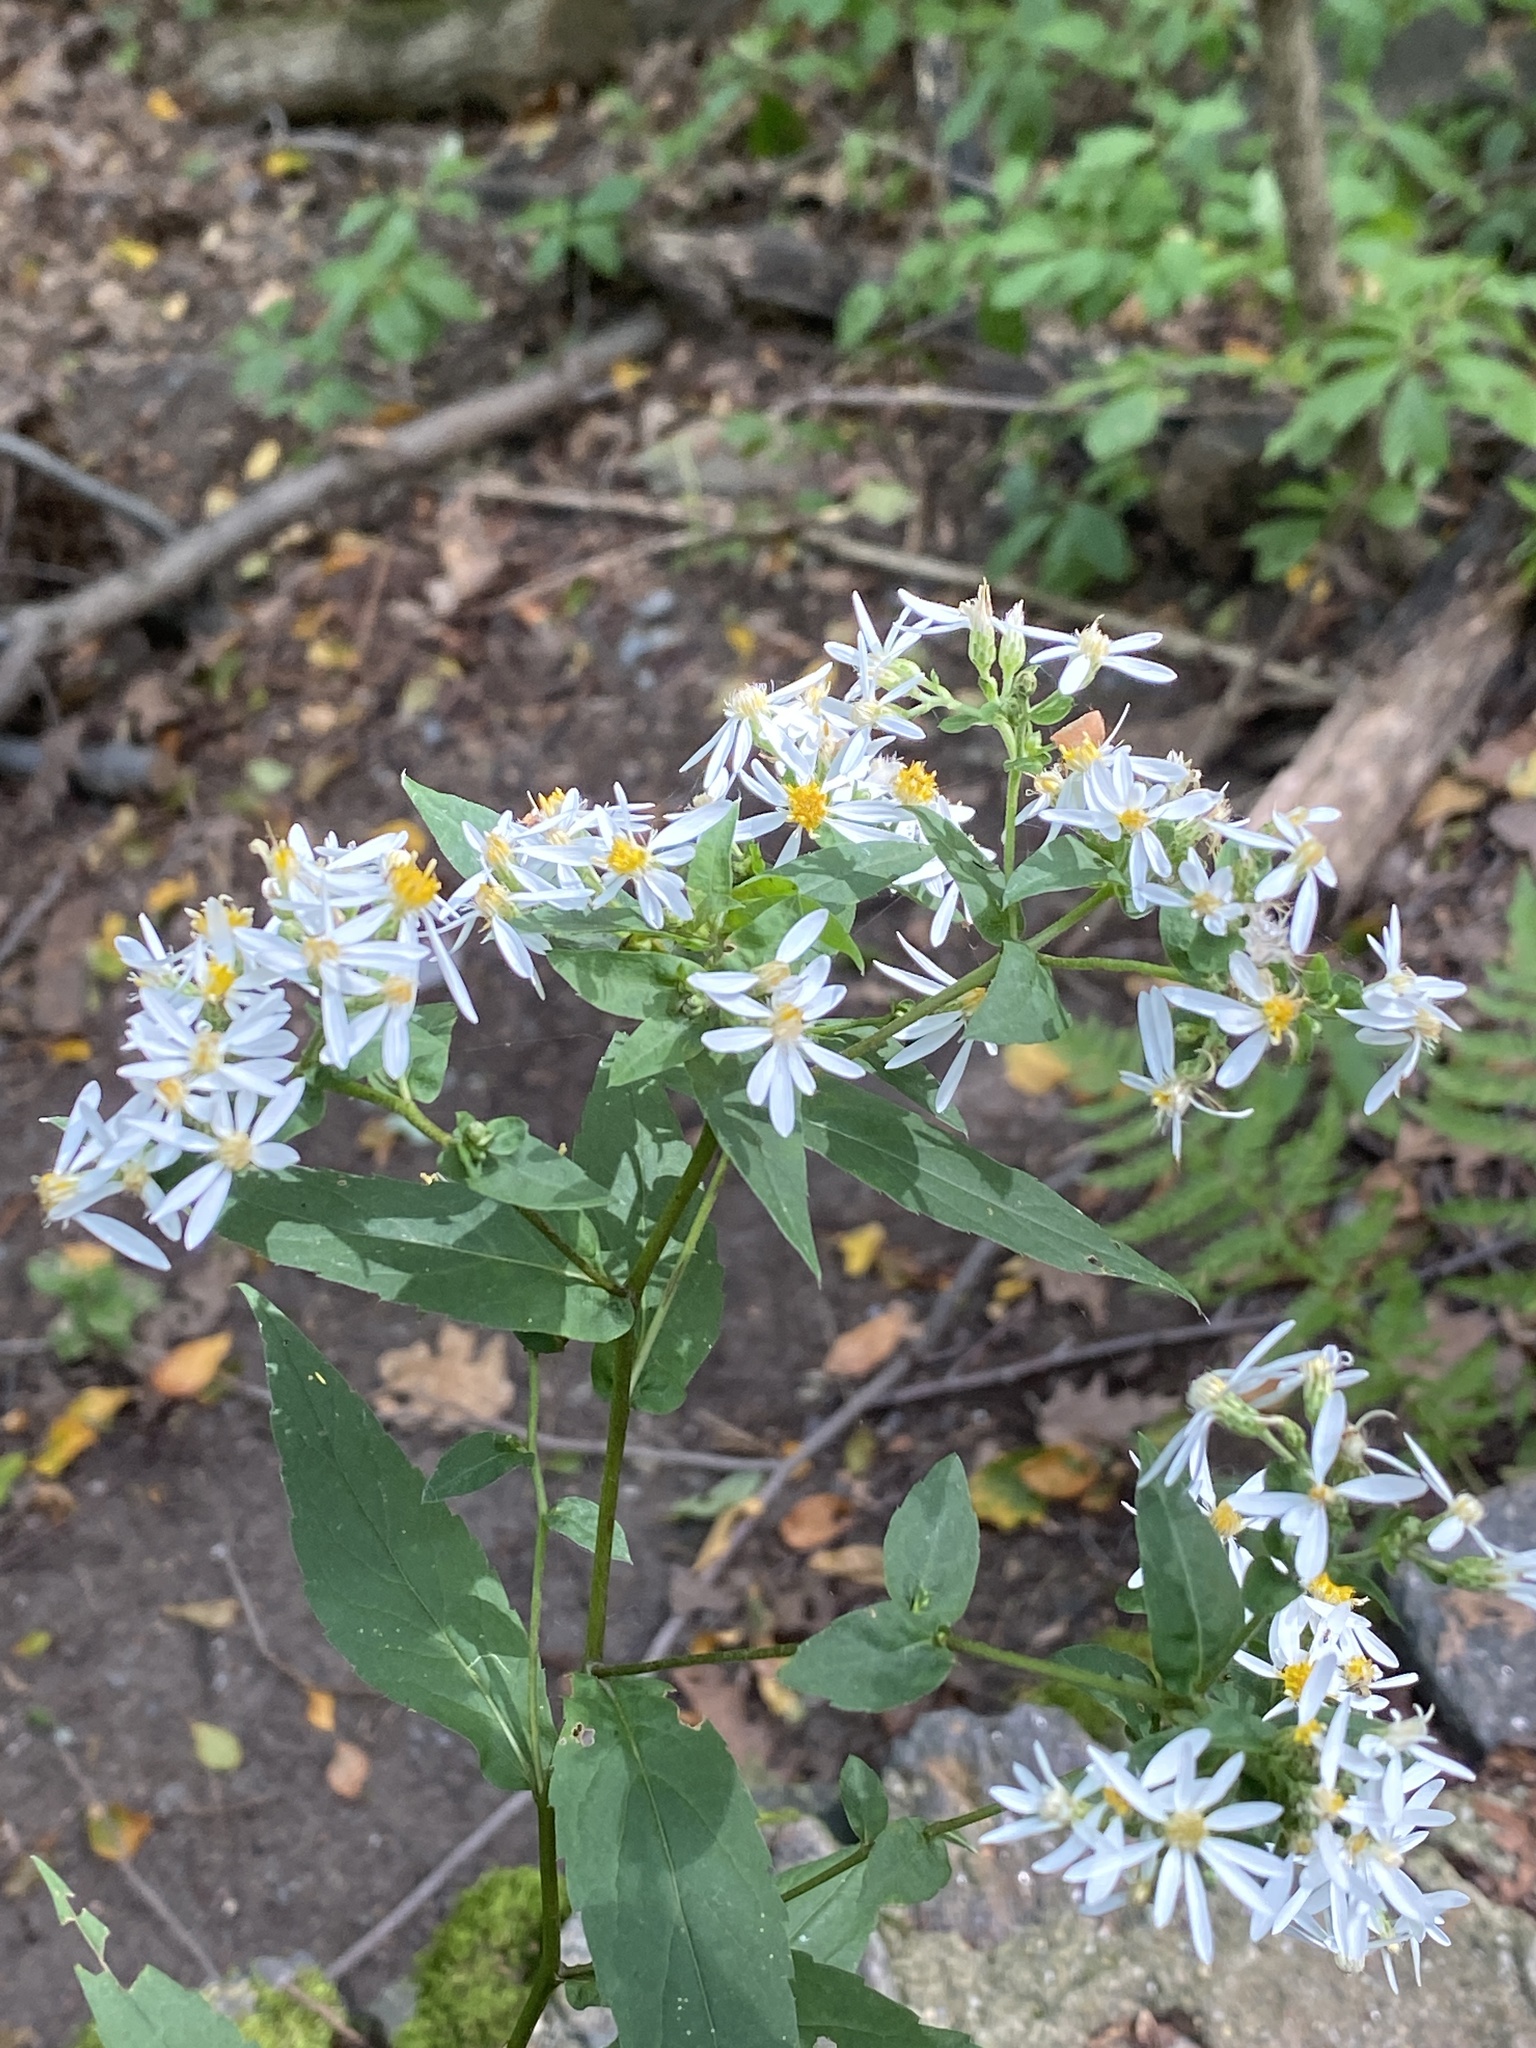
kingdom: Plantae
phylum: Tracheophyta
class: Magnoliopsida
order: Asterales
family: Asteraceae
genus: Eurybia
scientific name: Eurybia divaricata
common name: White wood aster
